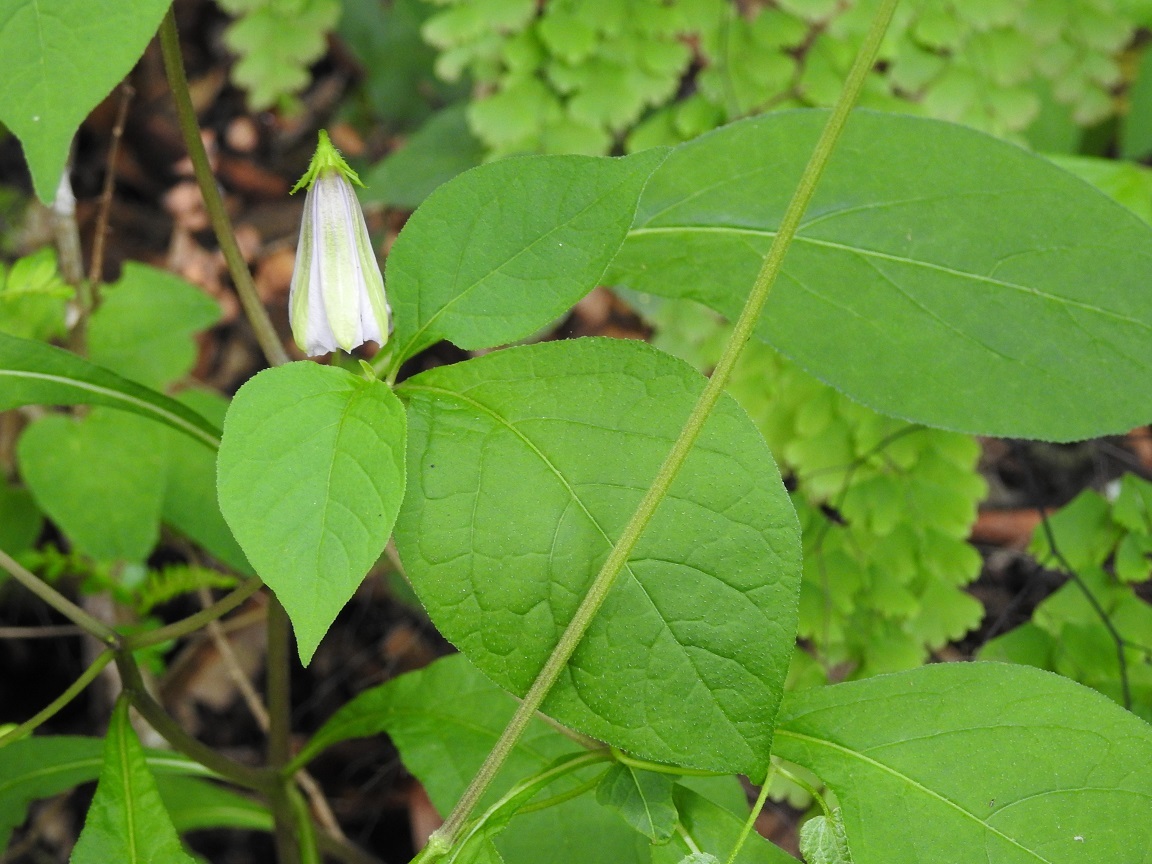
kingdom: Plantae
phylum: Tracheophyta
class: Magnoliopsida
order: Solanales
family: Solanaceae
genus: Lycianthes
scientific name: Lycianthes ciliolata
